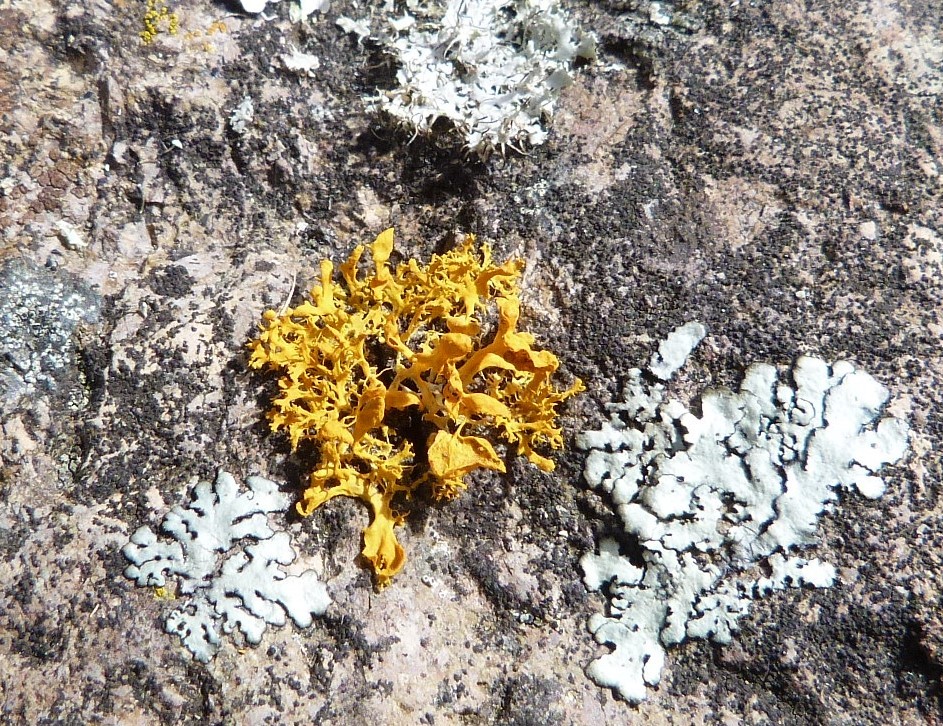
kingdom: Fungi
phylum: Ascomycota
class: Lecanoromycetes
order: Teloschistales
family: Teloschistaceae
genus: Teloschistes
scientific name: Teloschistes velifer
